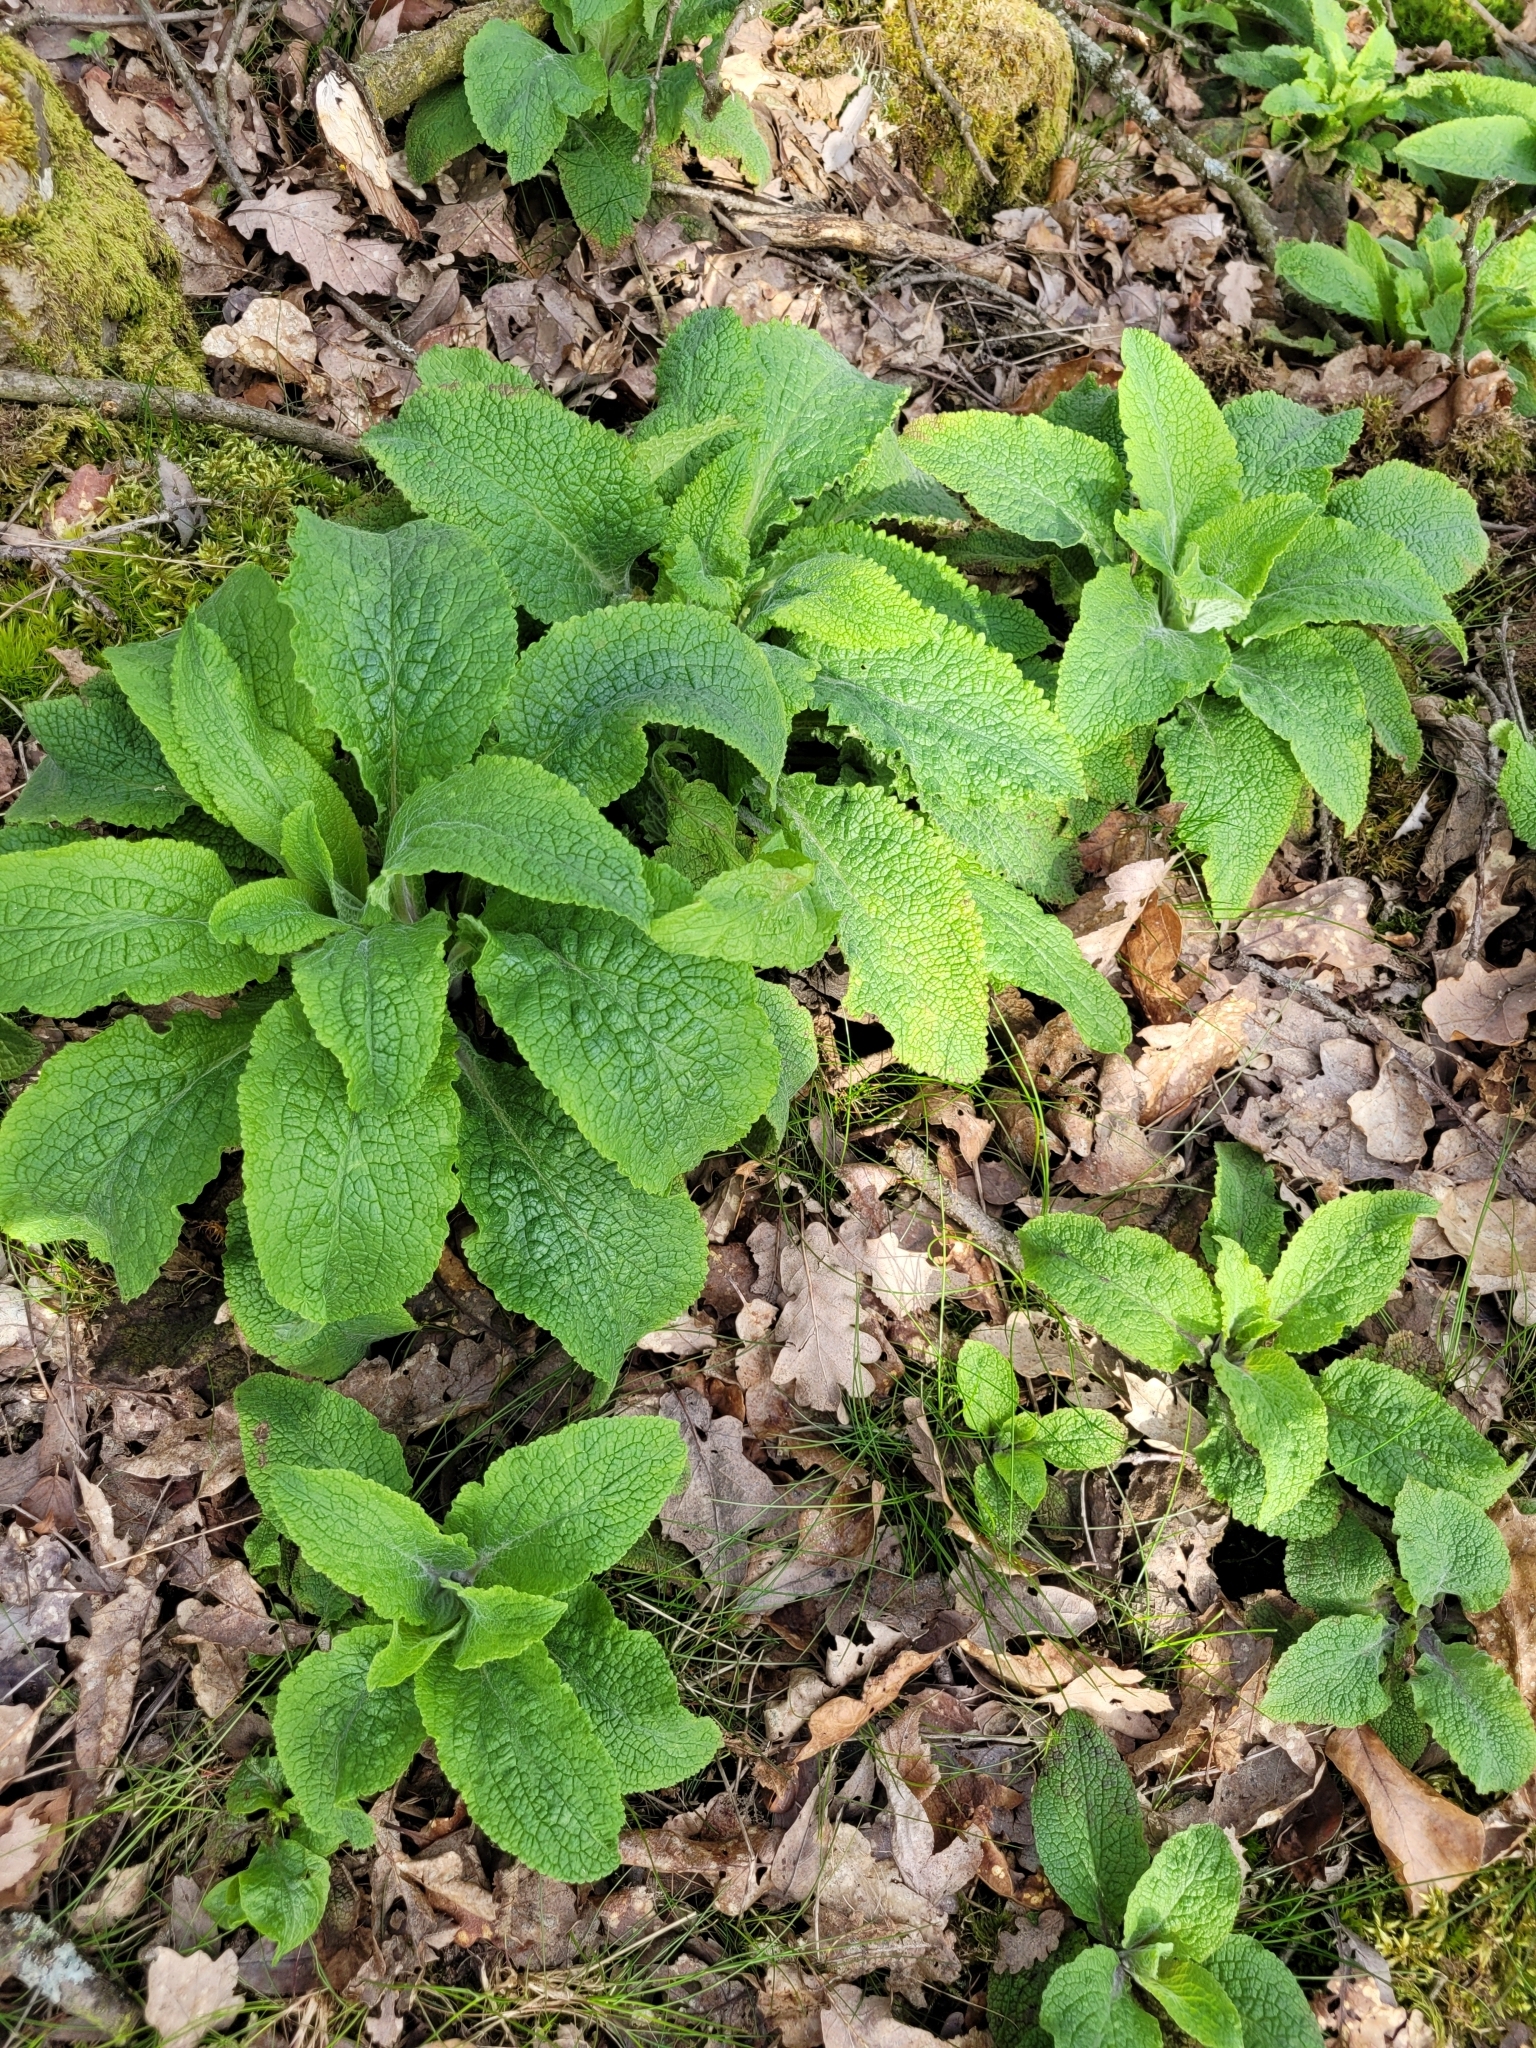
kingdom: Plantae
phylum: Tracheophyta
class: Magnoliopsida
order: Lamiales
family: Plantaginaceae
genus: Digitalis
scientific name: Digitalis purpurea
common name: Foxglove
